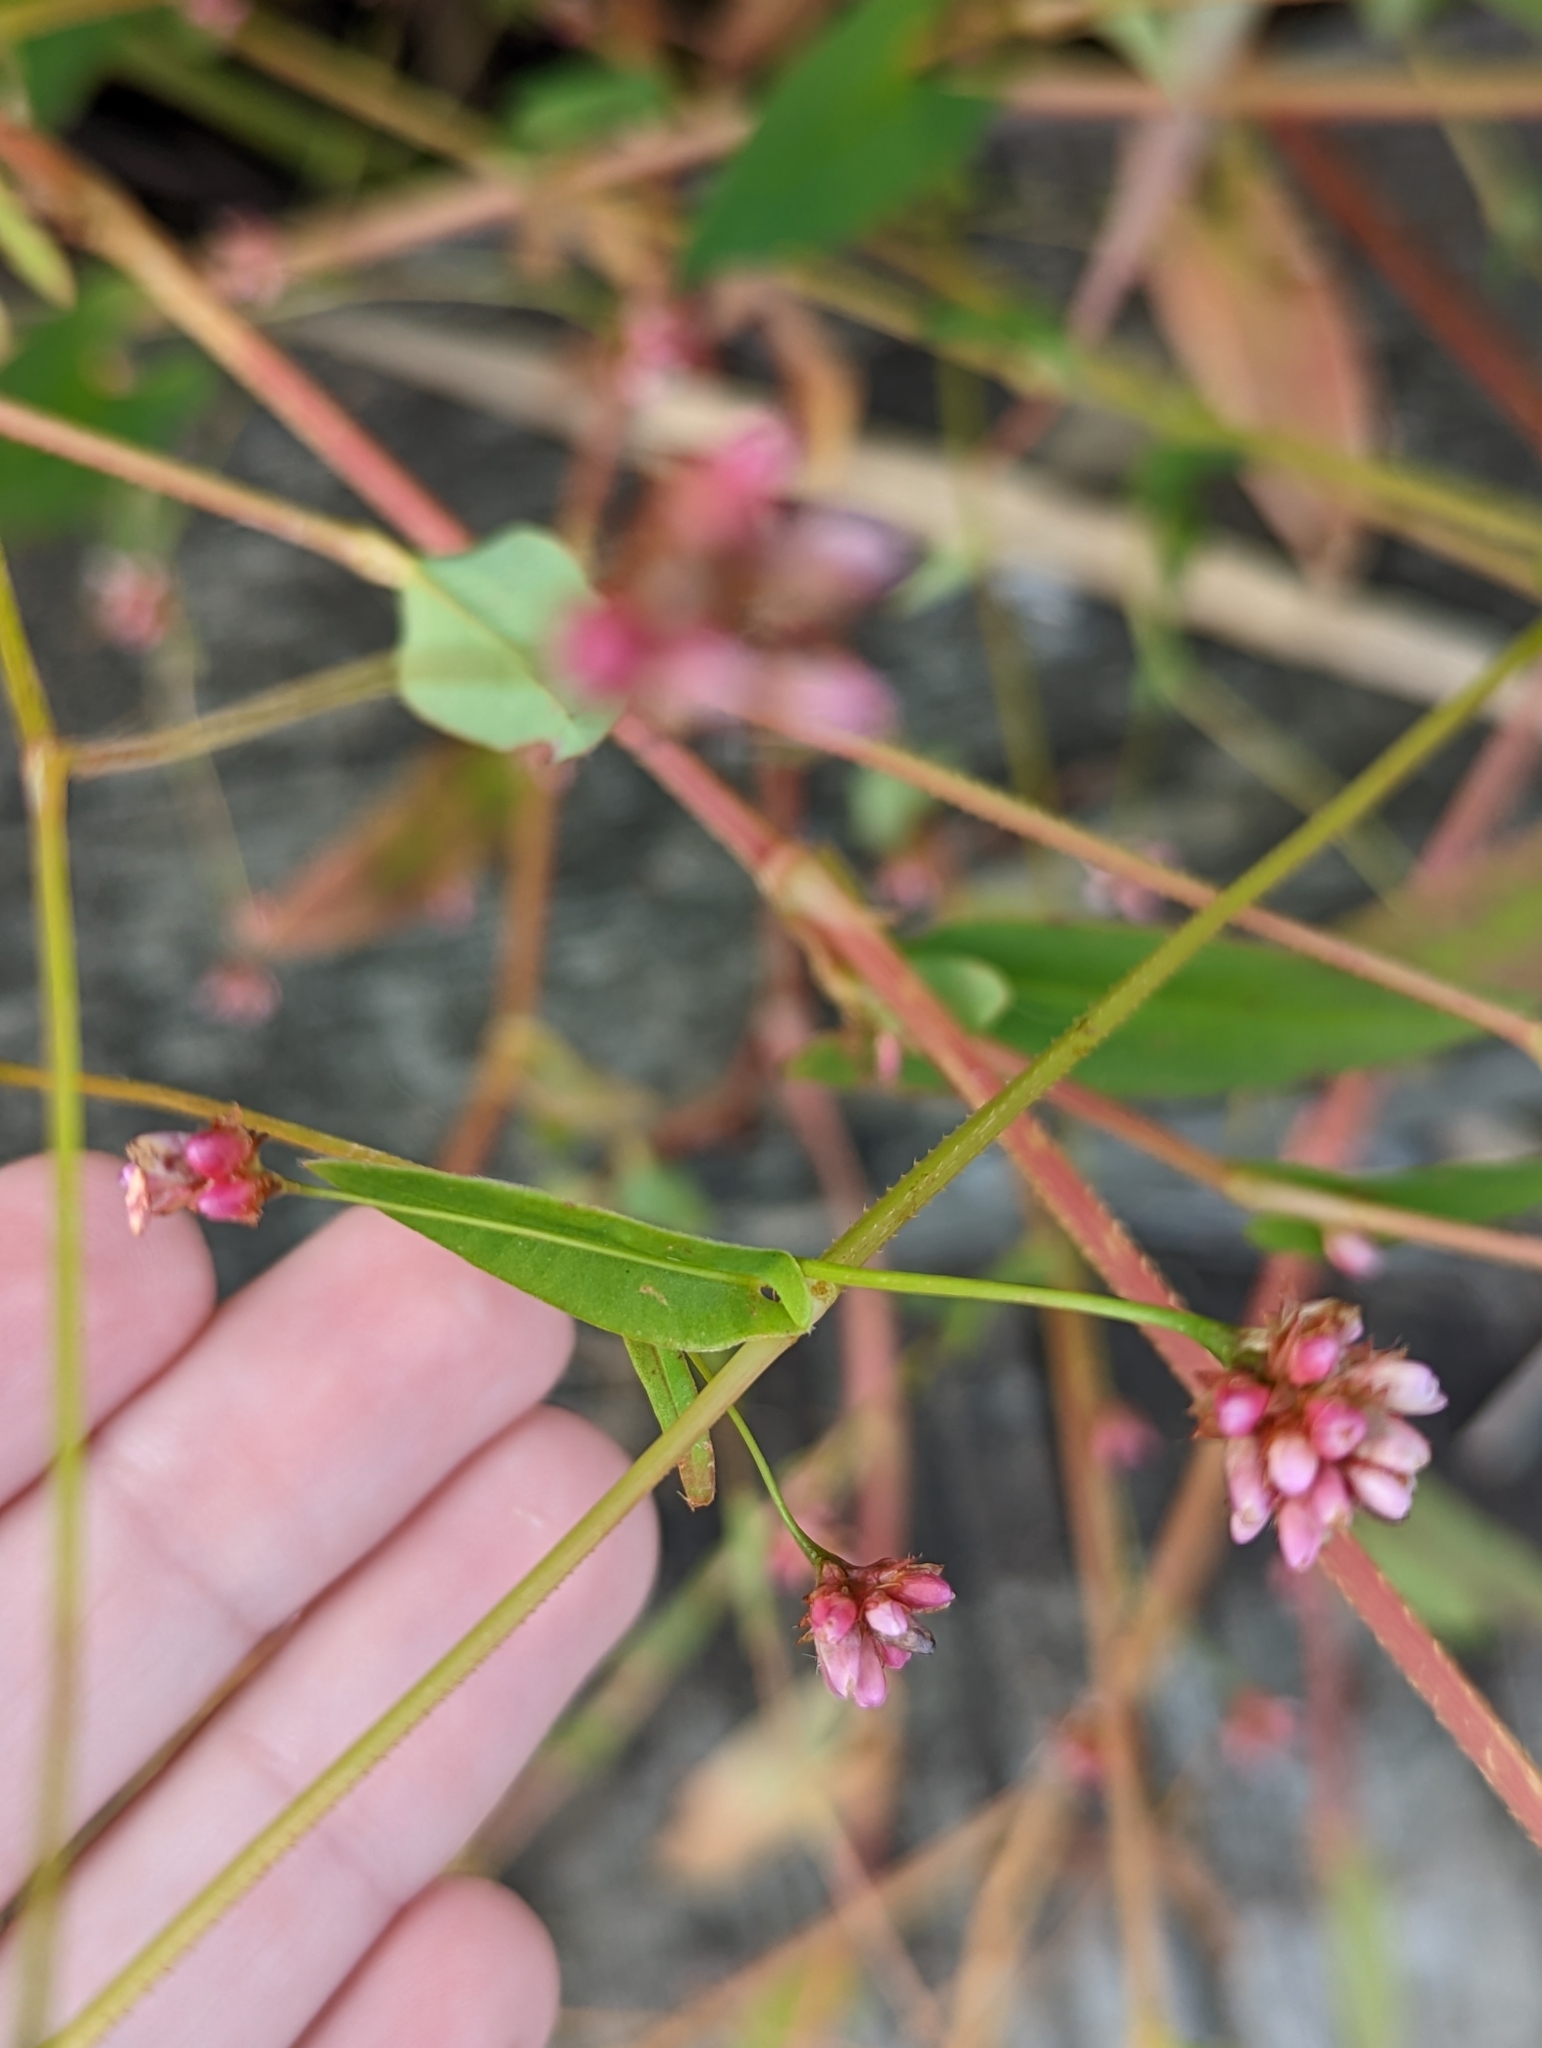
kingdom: Plantae
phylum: Tracheophyta
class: Magnoliopsida
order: Caryophyllales
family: Polygonaceae
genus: Persicaria
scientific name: Persicaria sagittata
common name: American tearthumb
